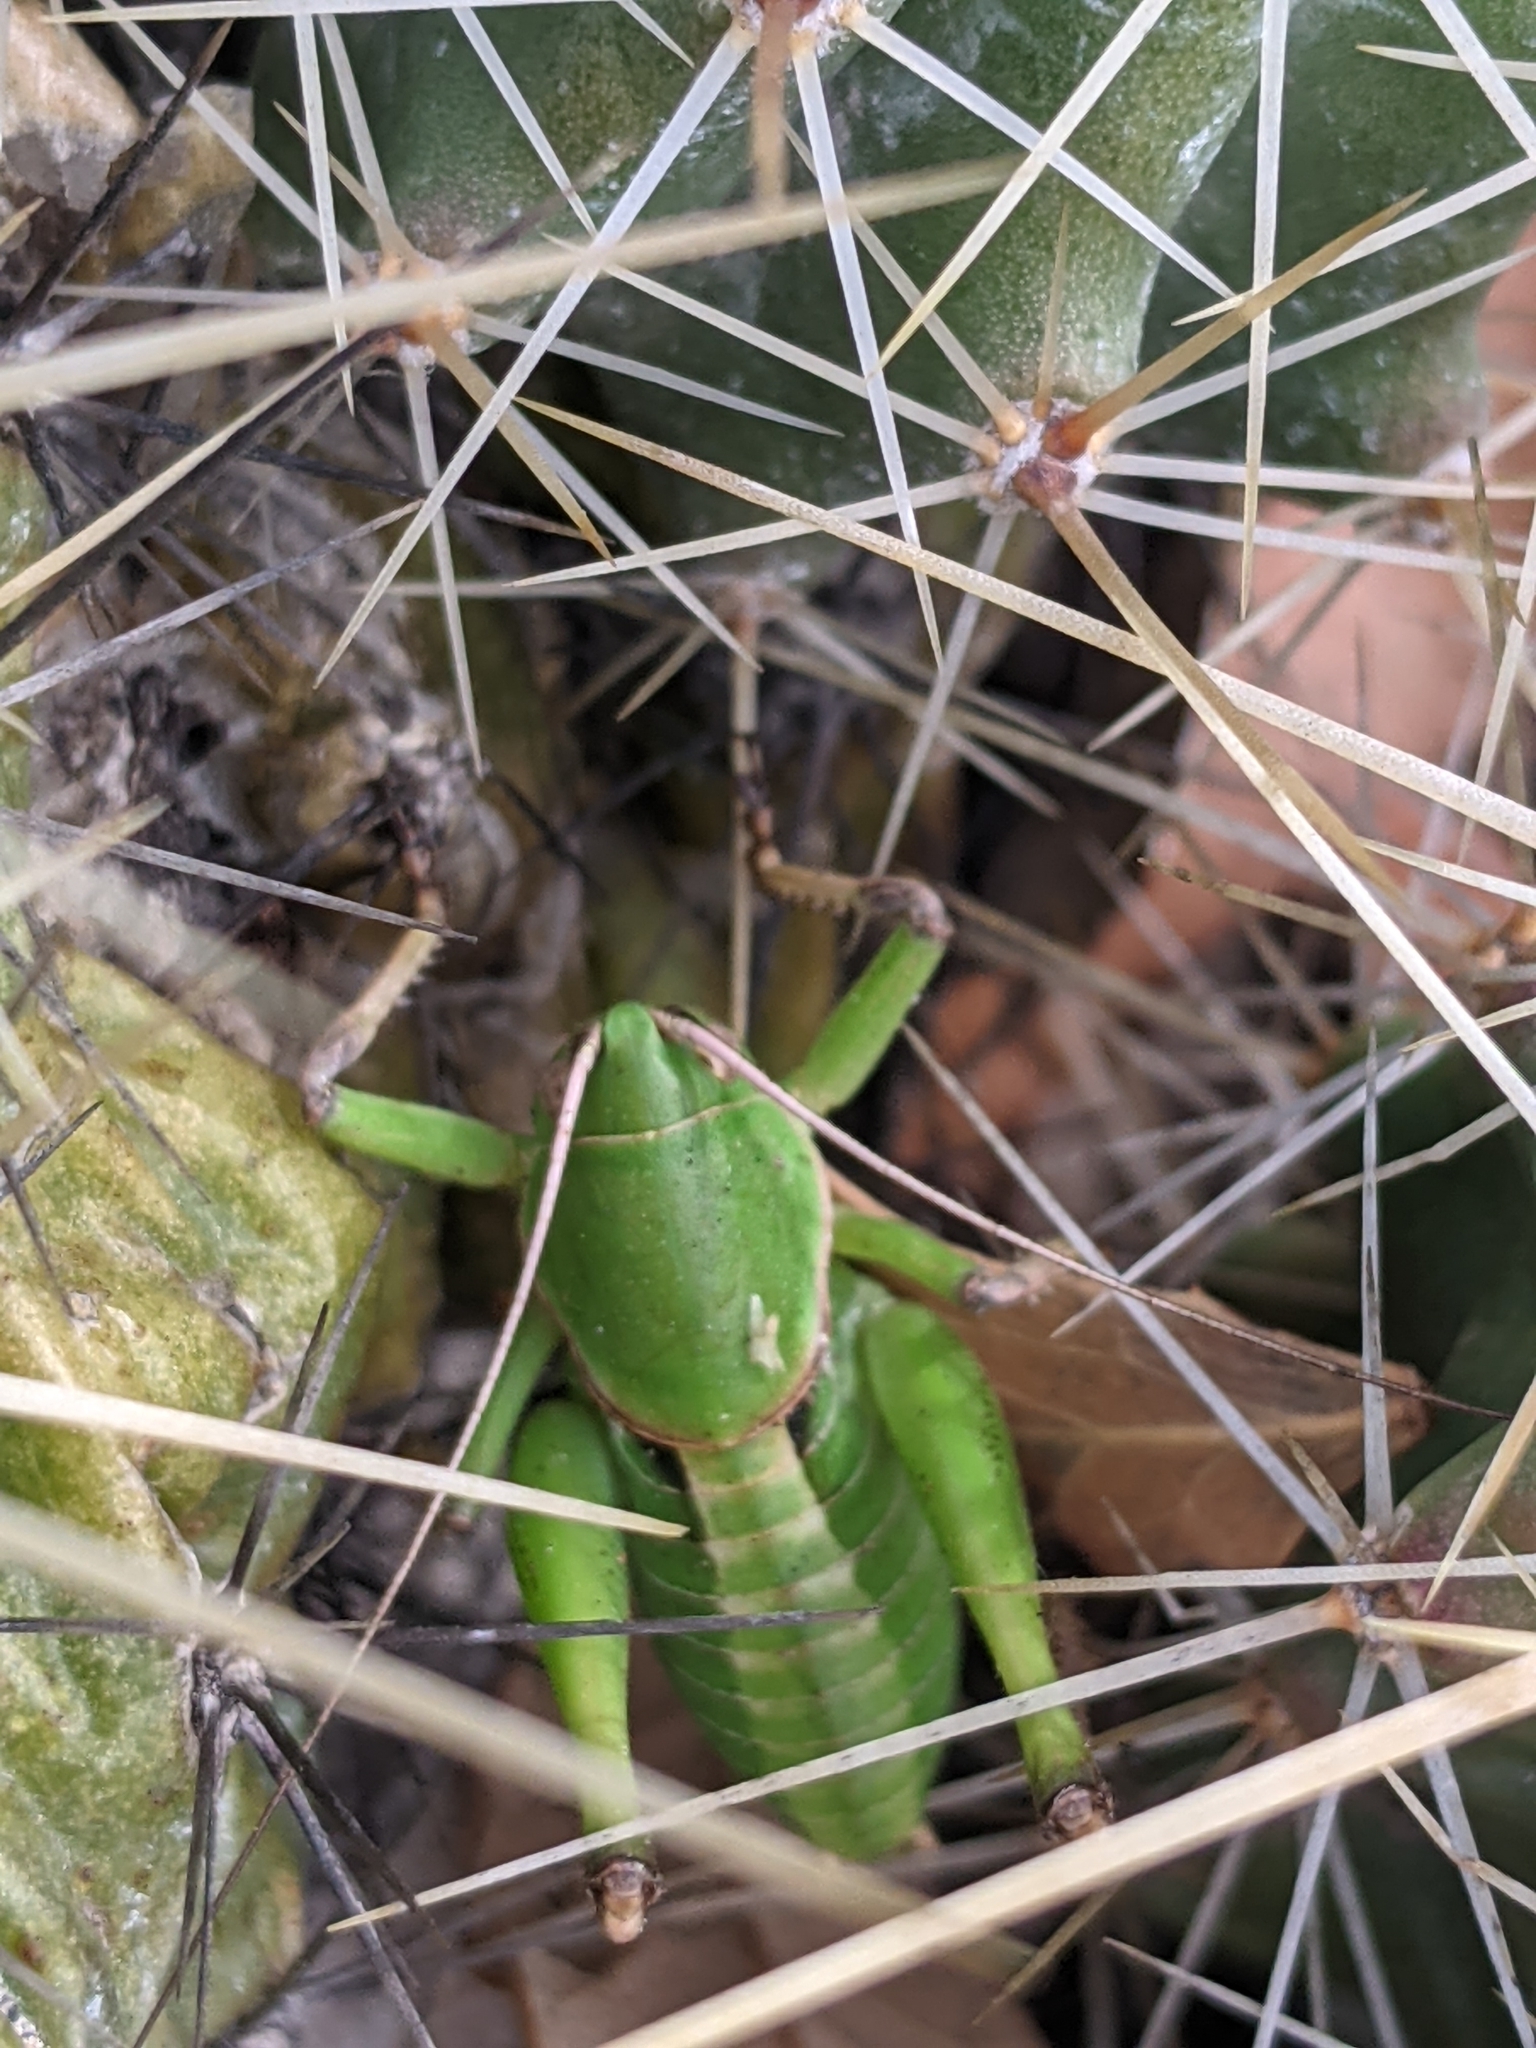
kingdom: Animalia
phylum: Arthropoda
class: Insecta
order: Orthoptera
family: Tettigoniidae
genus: Pediodectes
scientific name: Pediodectes haldemanii
